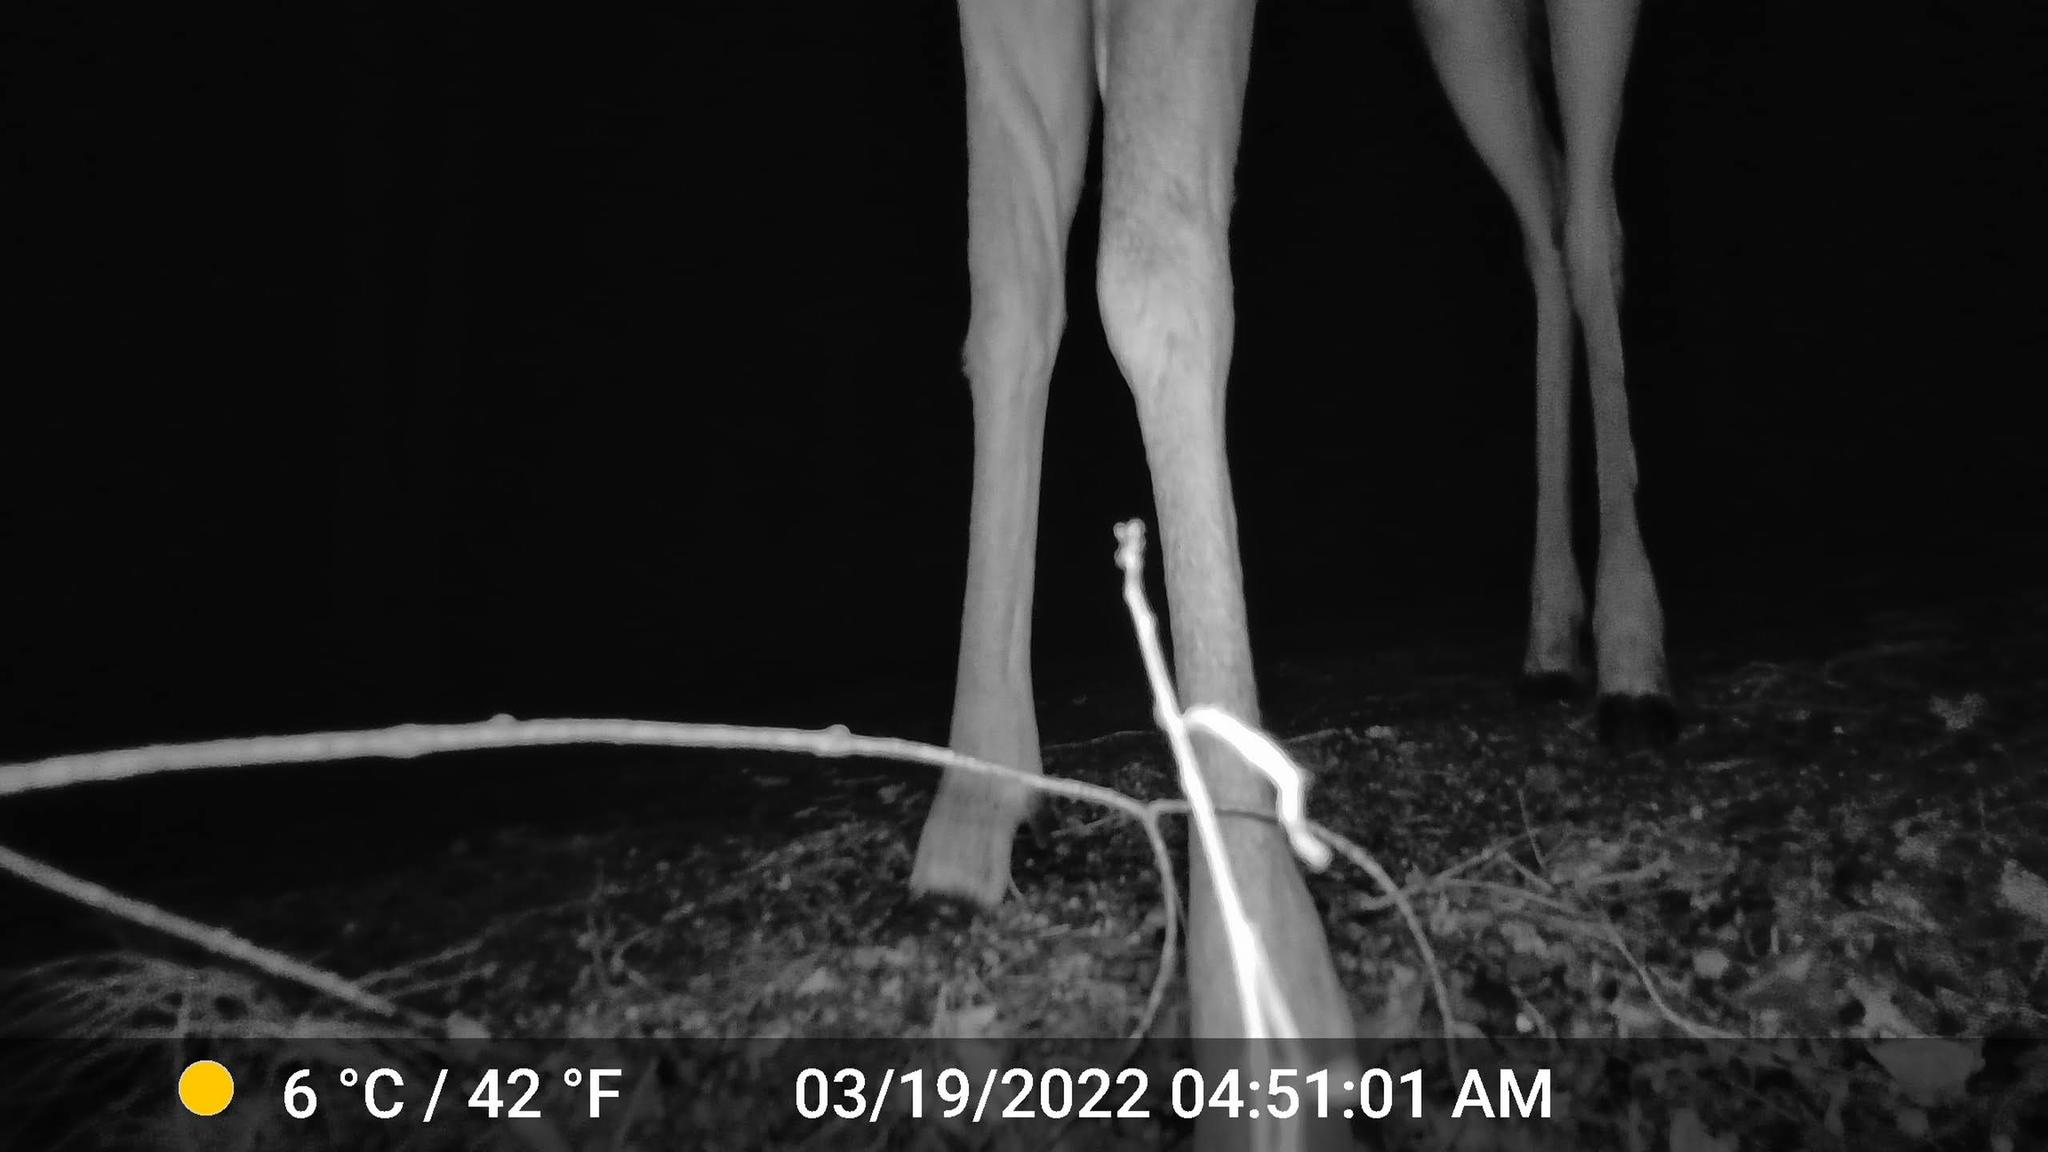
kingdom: Animalia
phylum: Chordata
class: Mammalia
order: Artiodactyla
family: Cervidae
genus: Odocoileus
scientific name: Odocoileus virginianus
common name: White-tailed deer
